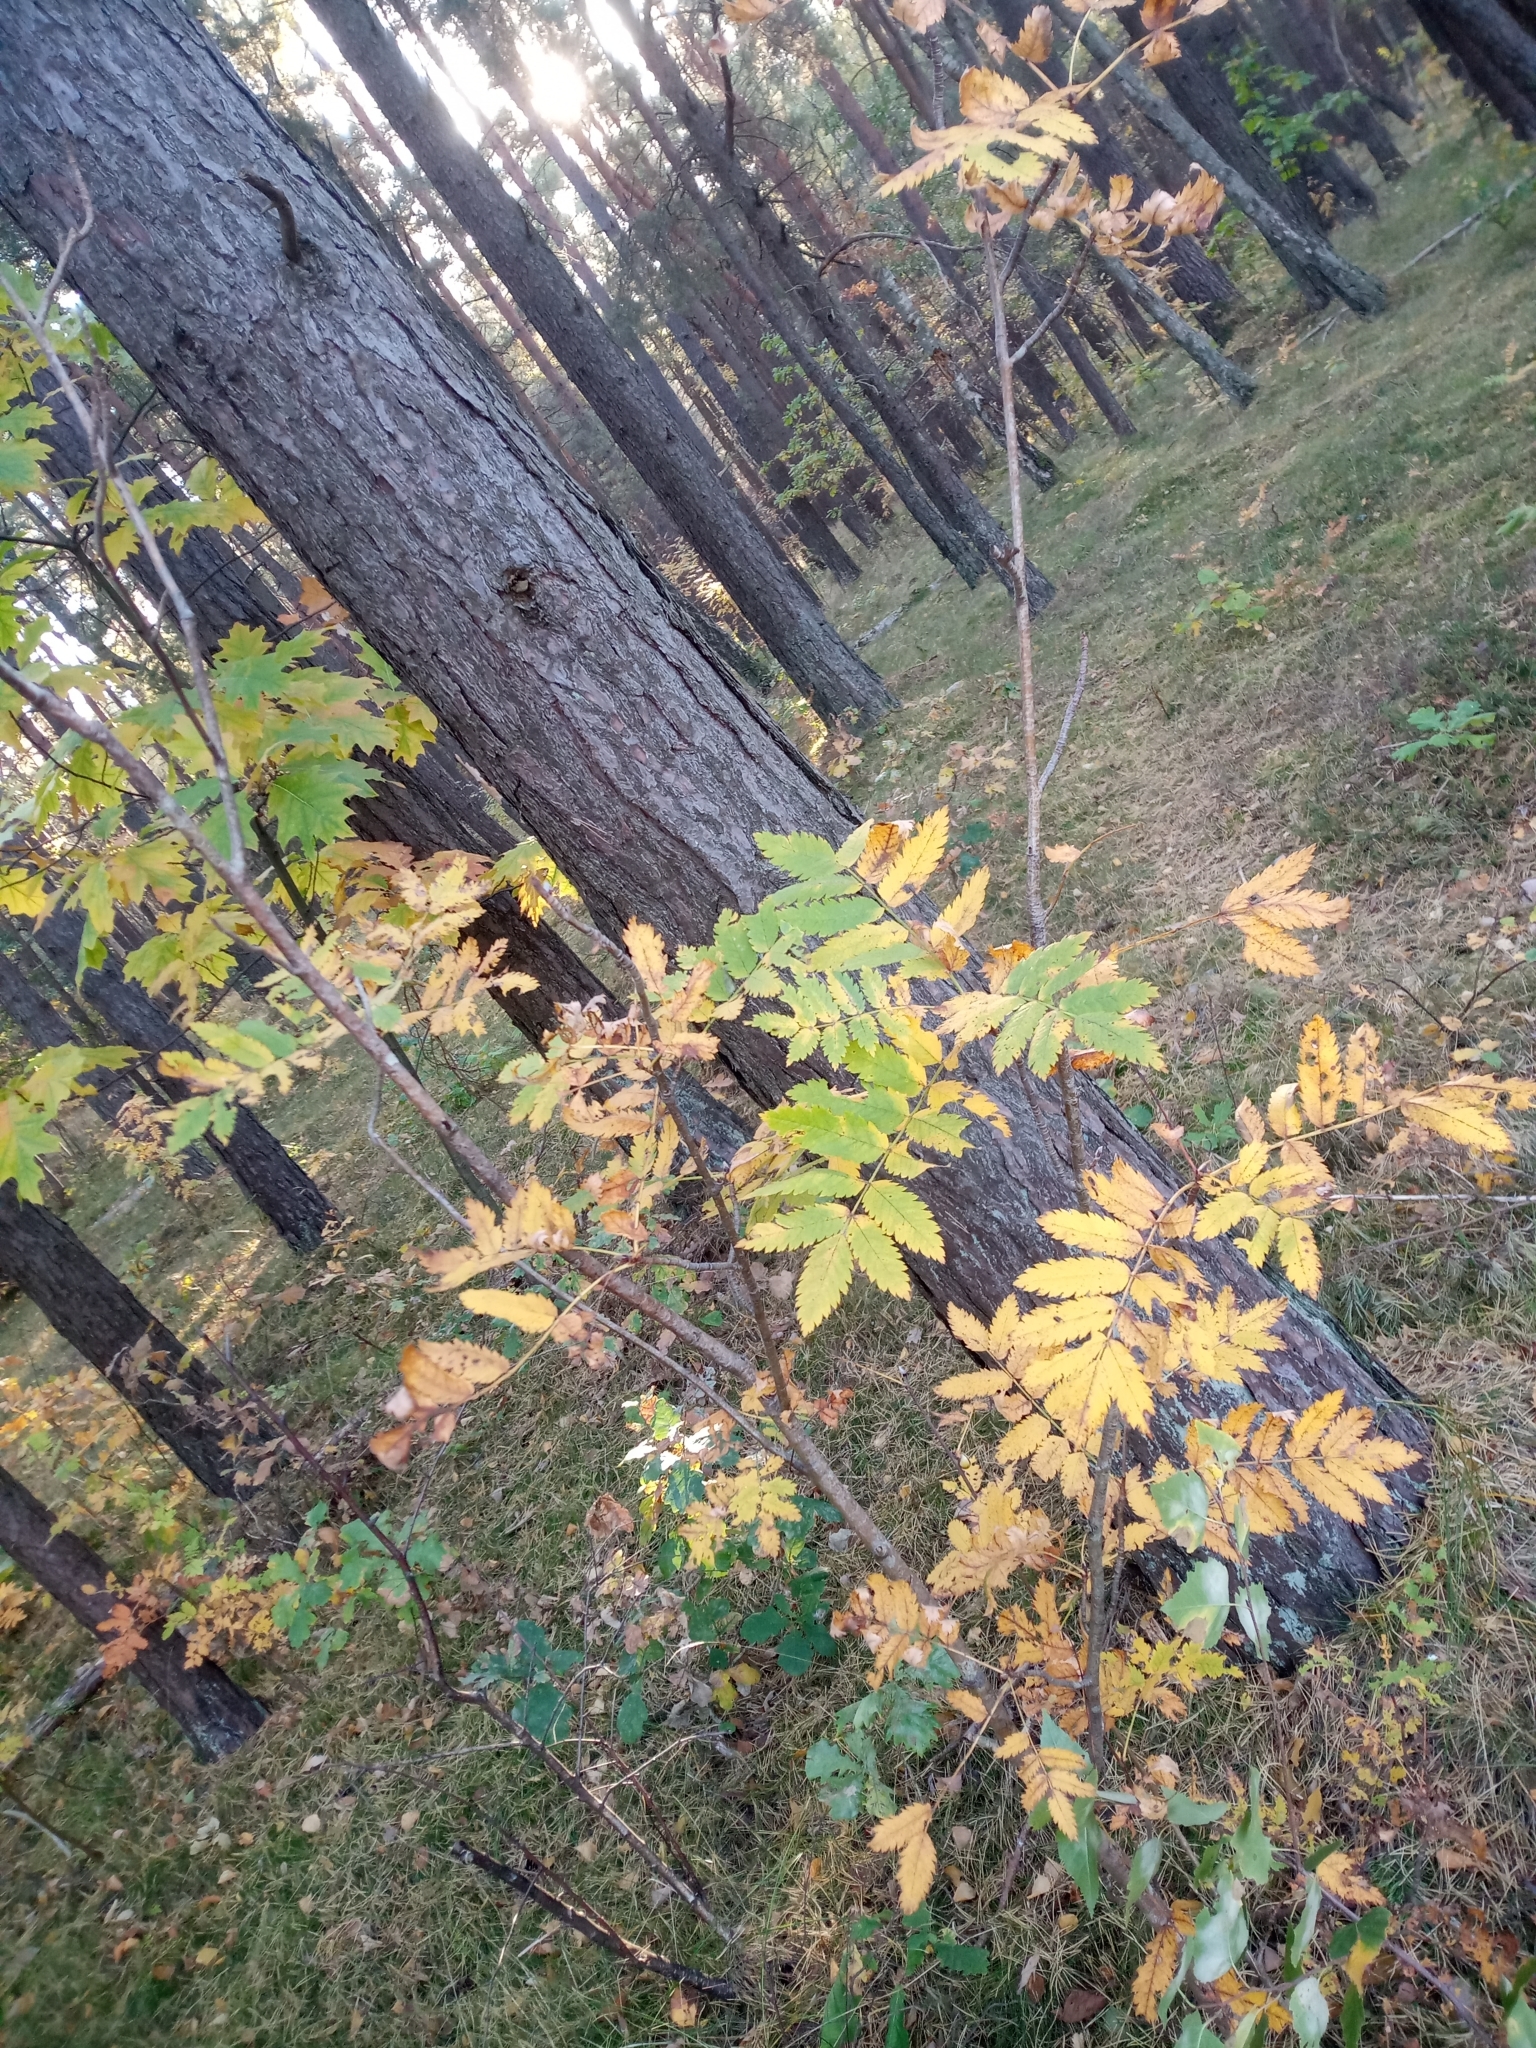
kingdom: Plantae
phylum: Tracheophyta
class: Magnoliopsida
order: Rosales
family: Rosaceae
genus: Sorbus
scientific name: Sorbus aucuparia
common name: Rowan
